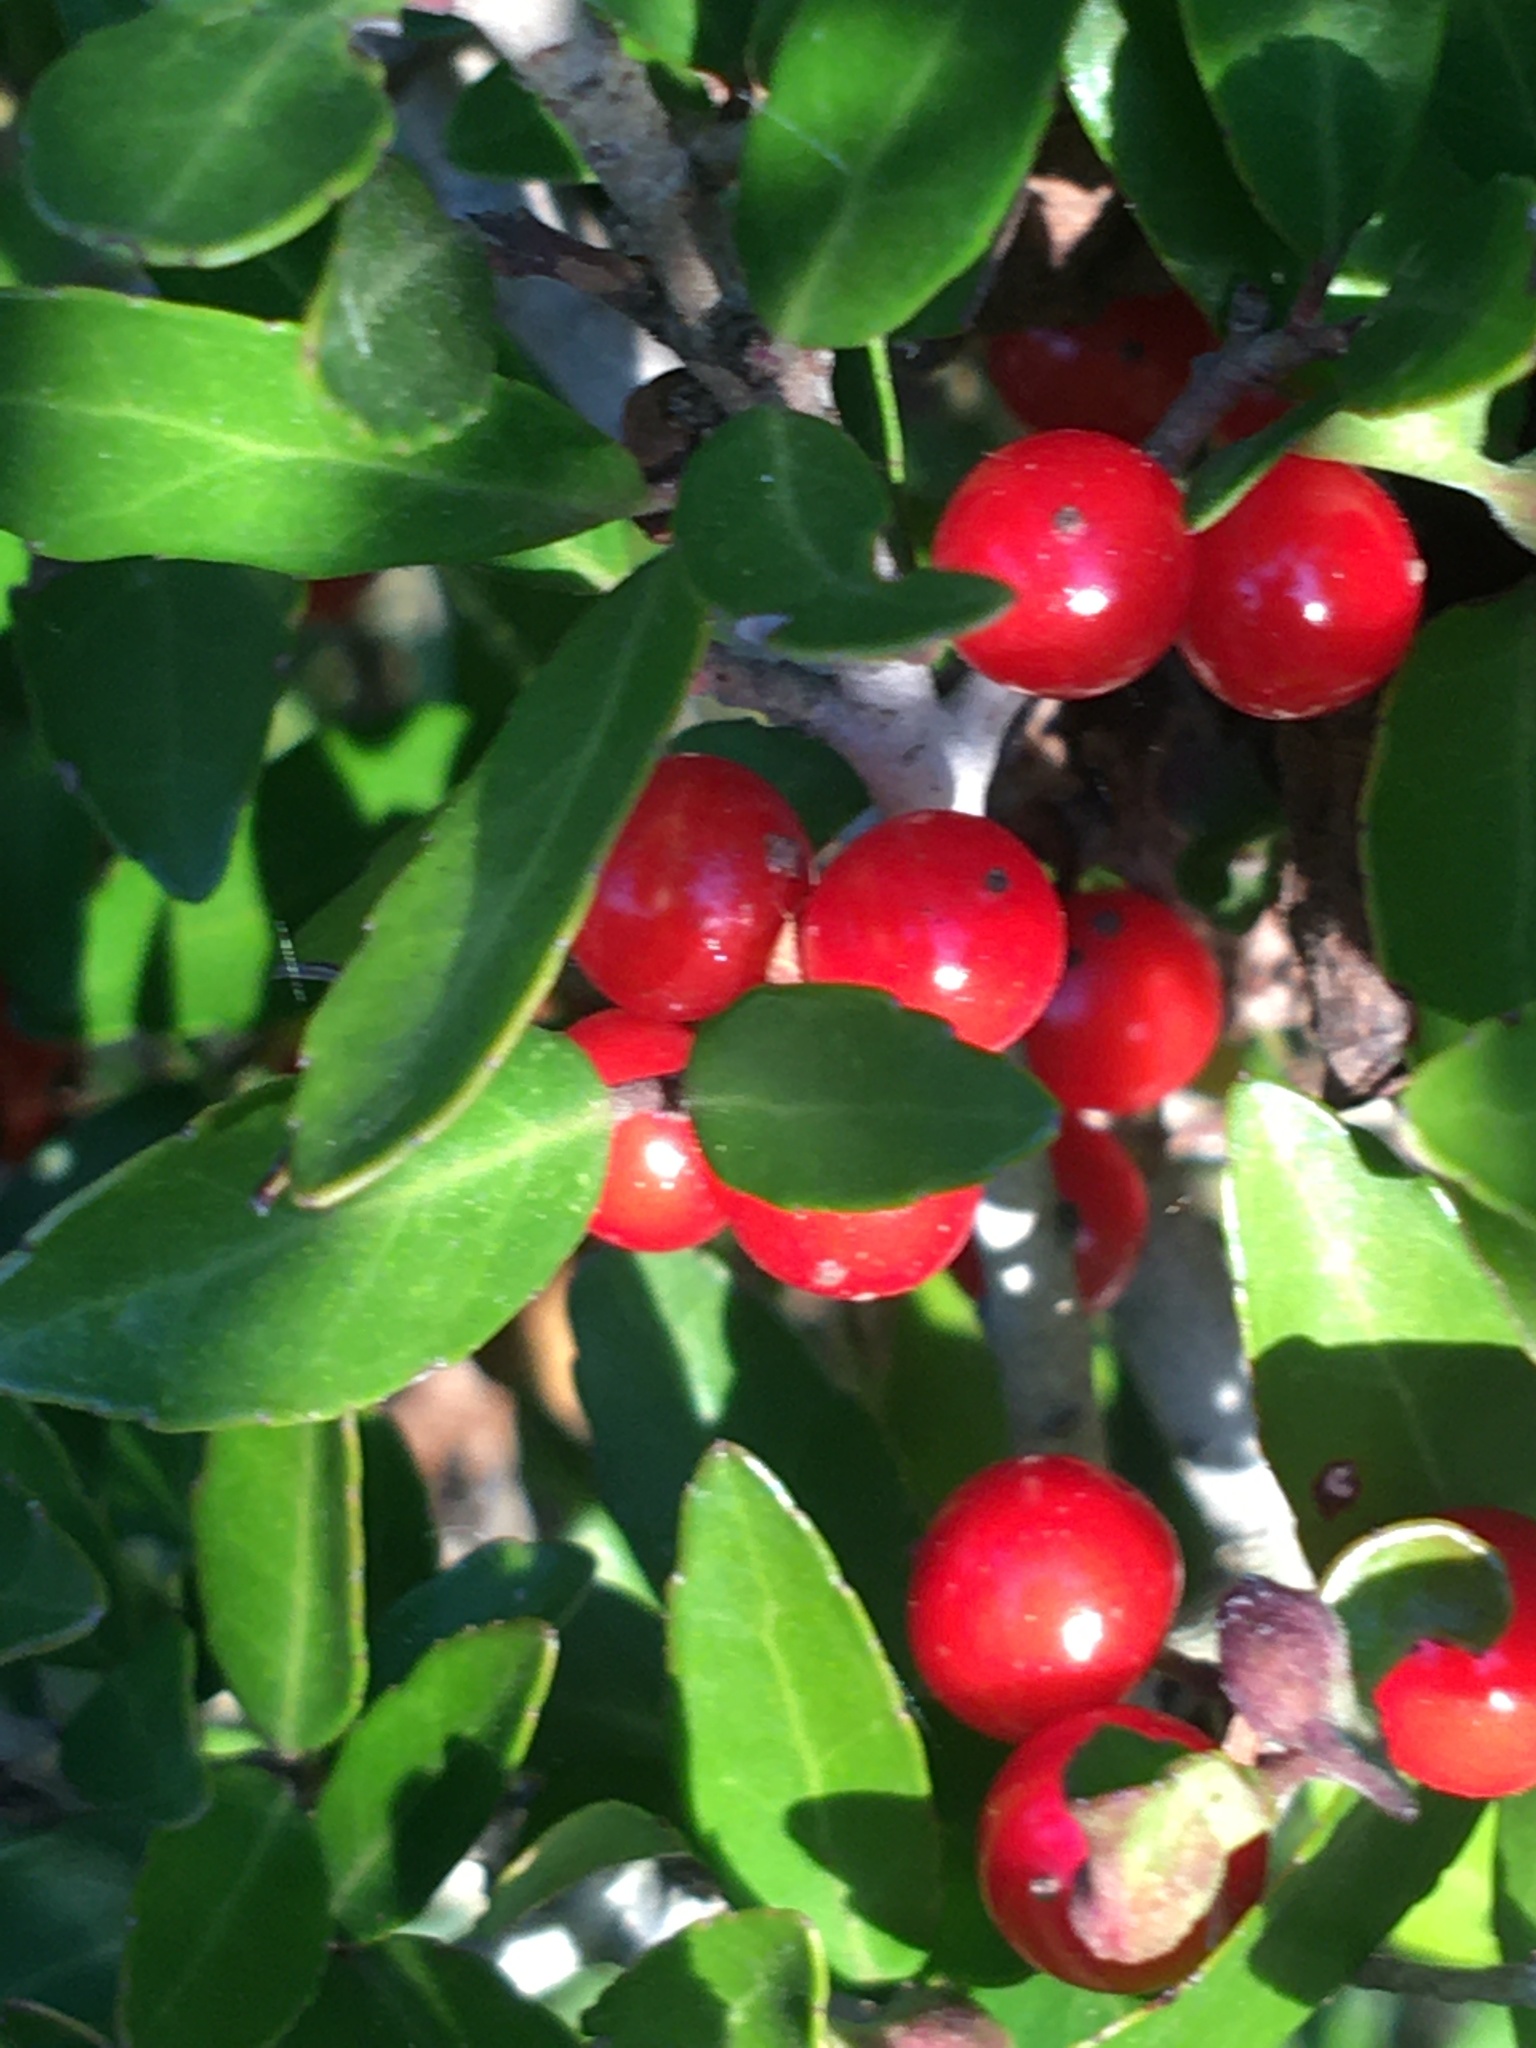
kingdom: Plantae
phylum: Tracheophyta
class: Magnoliopsida
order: Aquifoliales
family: Aquifoliaceae
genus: Ilex
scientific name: Ilex vomitoria
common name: Yaupon holly
